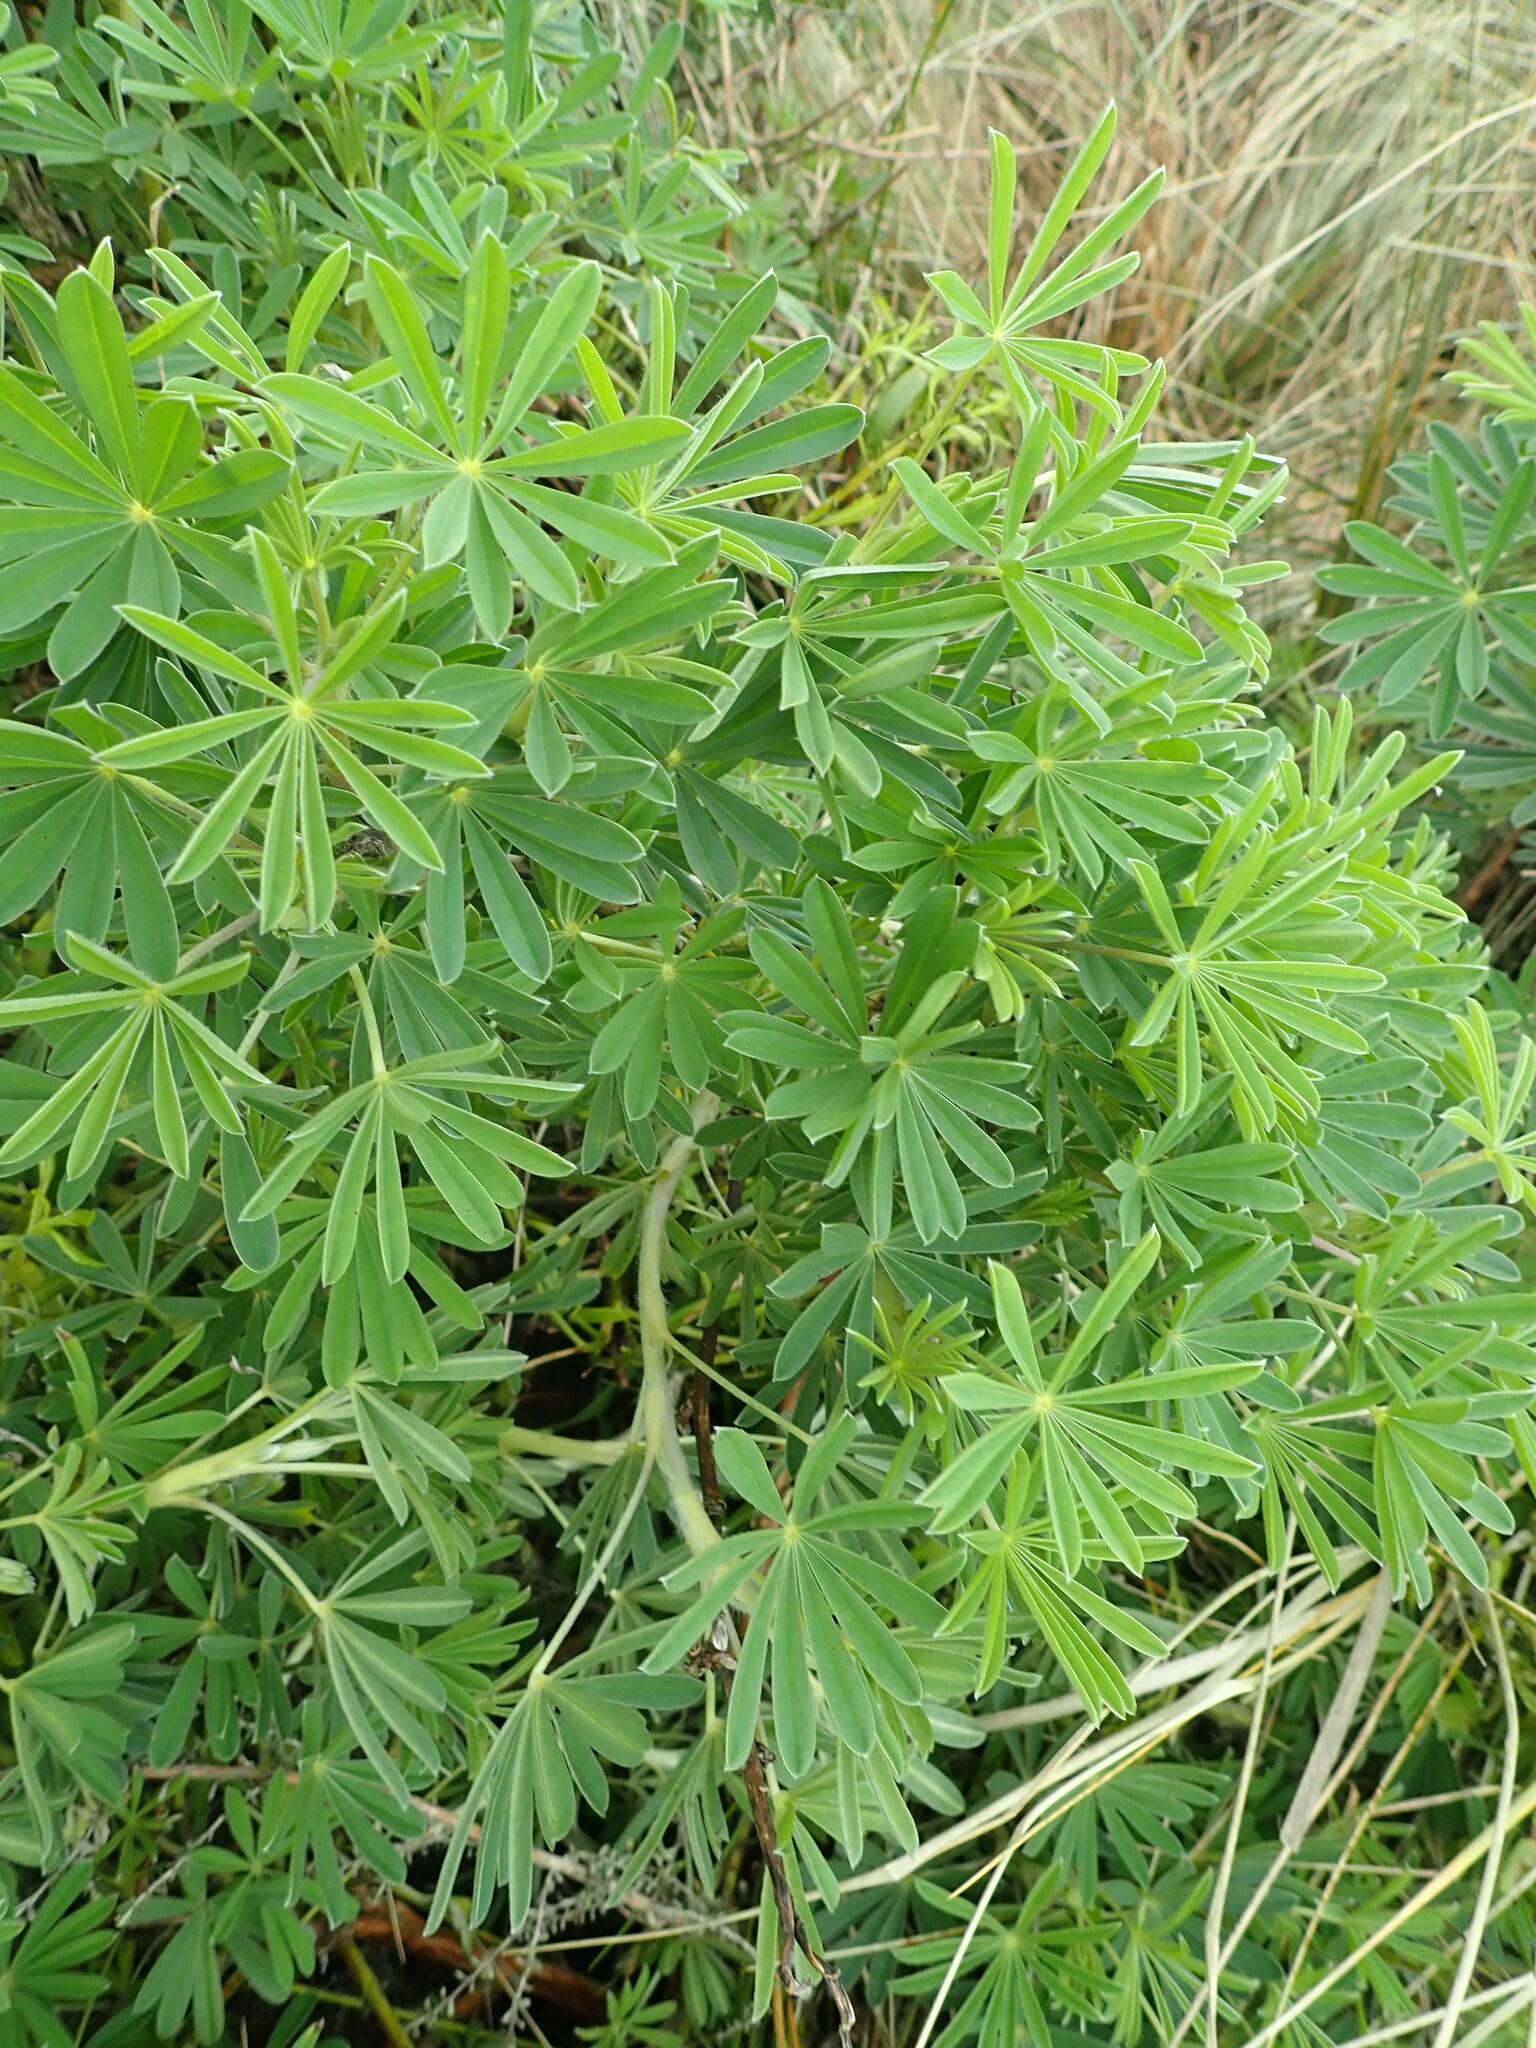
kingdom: Plantae
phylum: Tracheophyta
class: Magnoliopsida
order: Fabales
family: Fabaceae
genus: Lupinus
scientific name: Lupinus arboreus
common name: Yellow bush lupine
